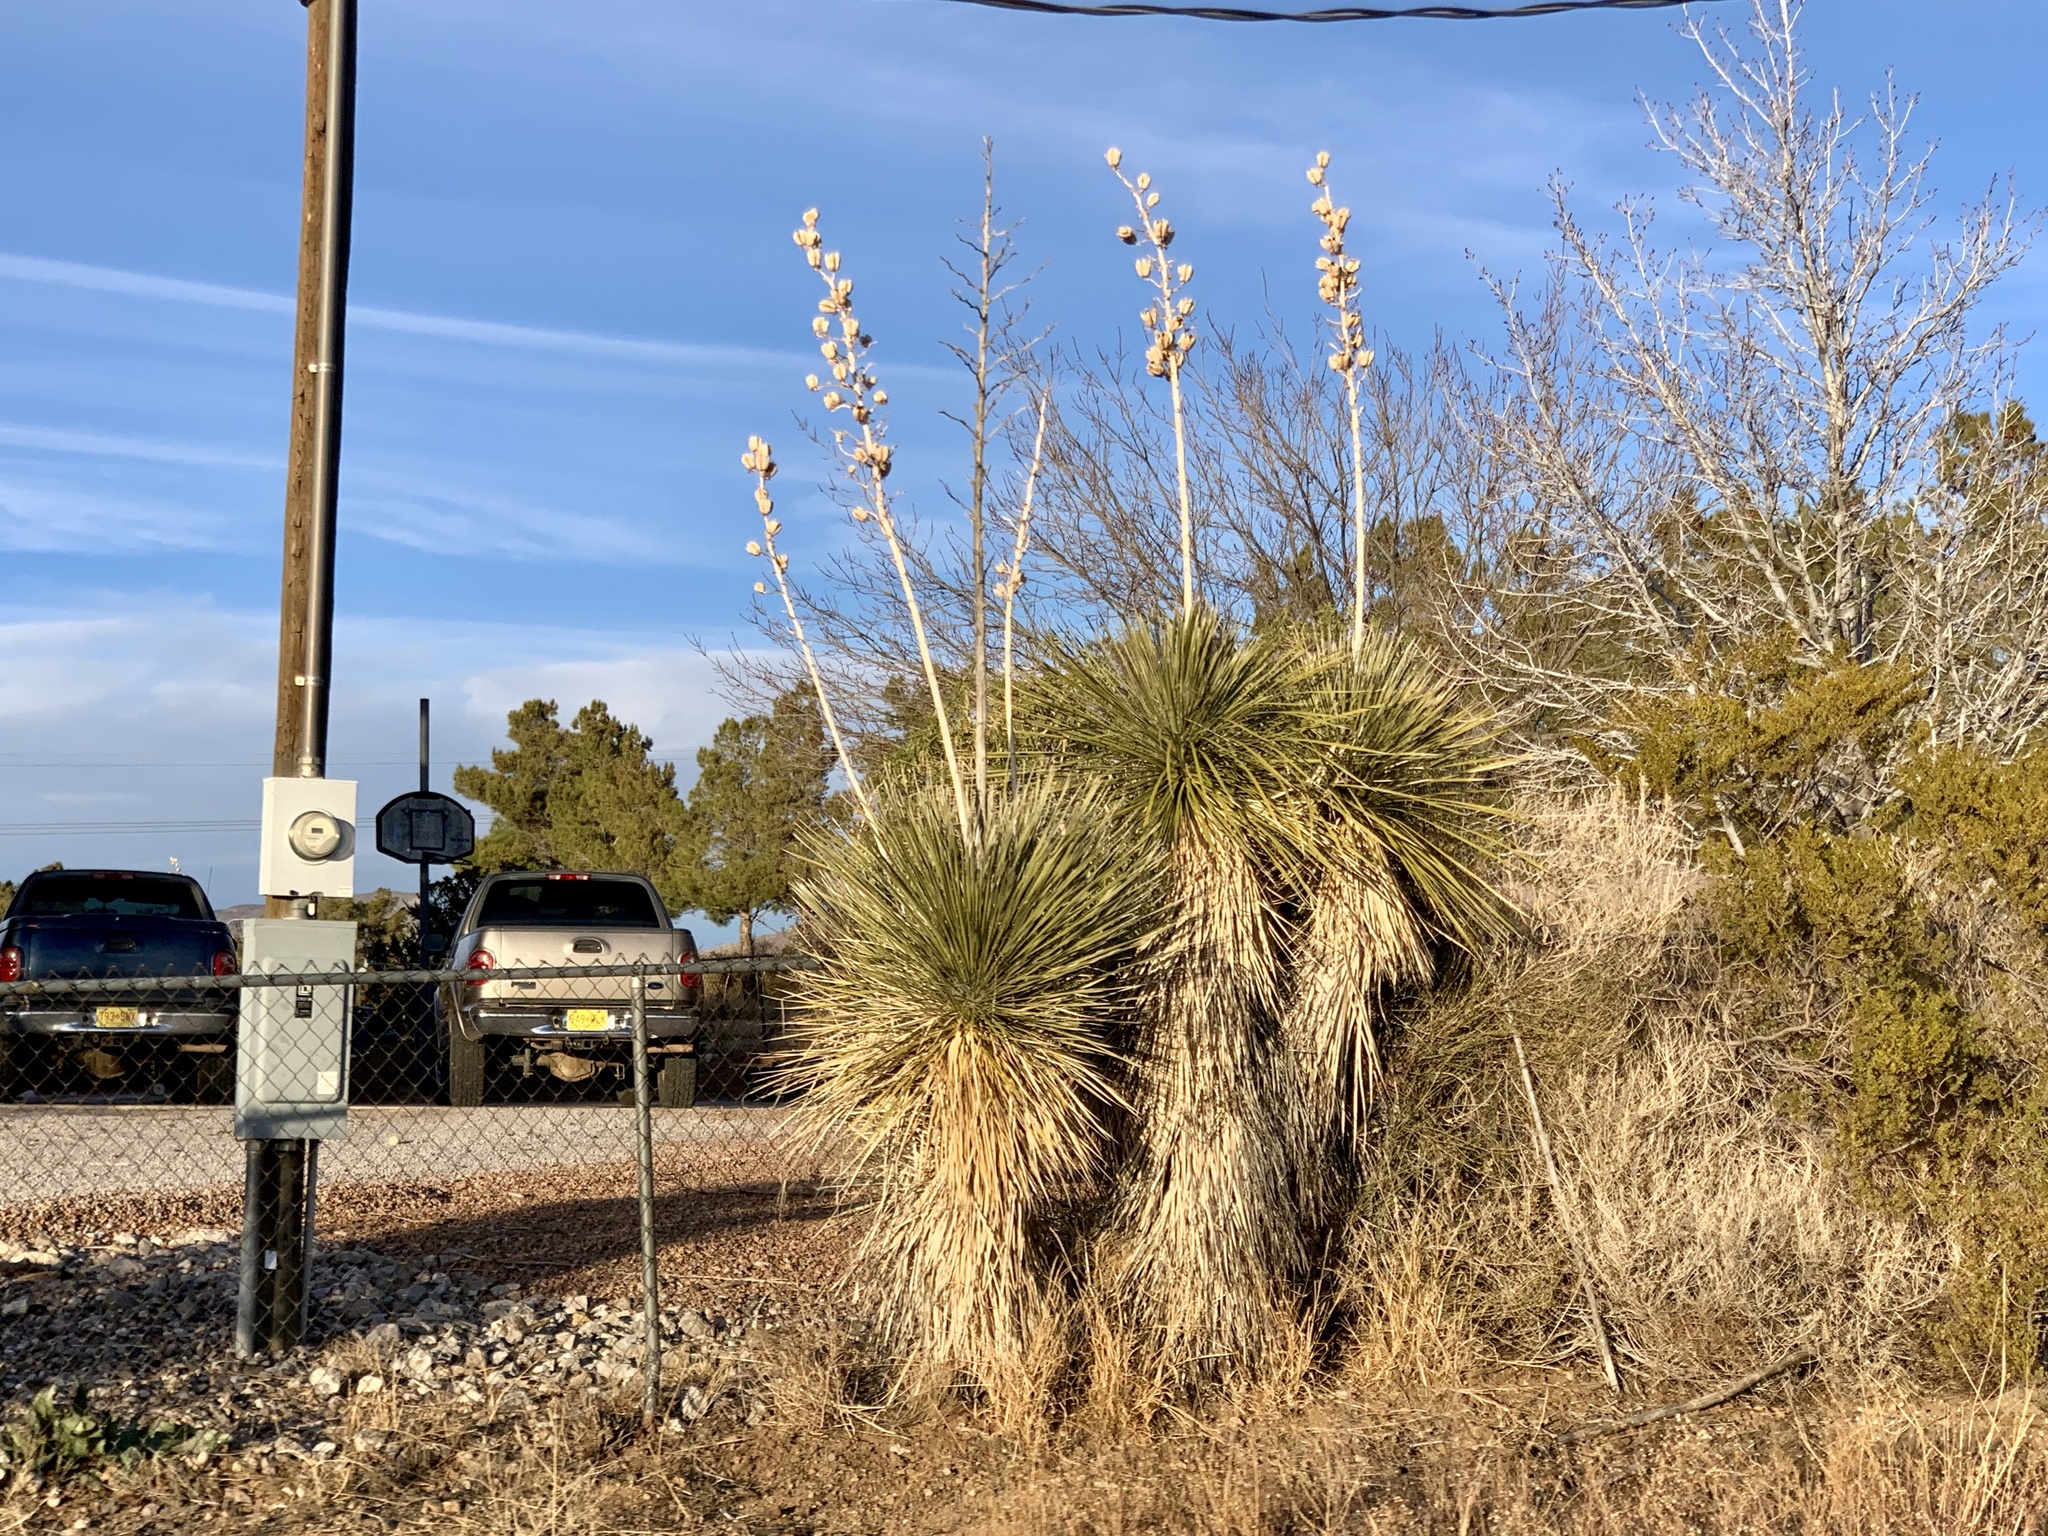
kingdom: Plantae
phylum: Tracheophyta
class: Liliopsida
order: Asparagales
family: Asparagaceae
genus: Yucca
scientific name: Yucca elata
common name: Palmella
